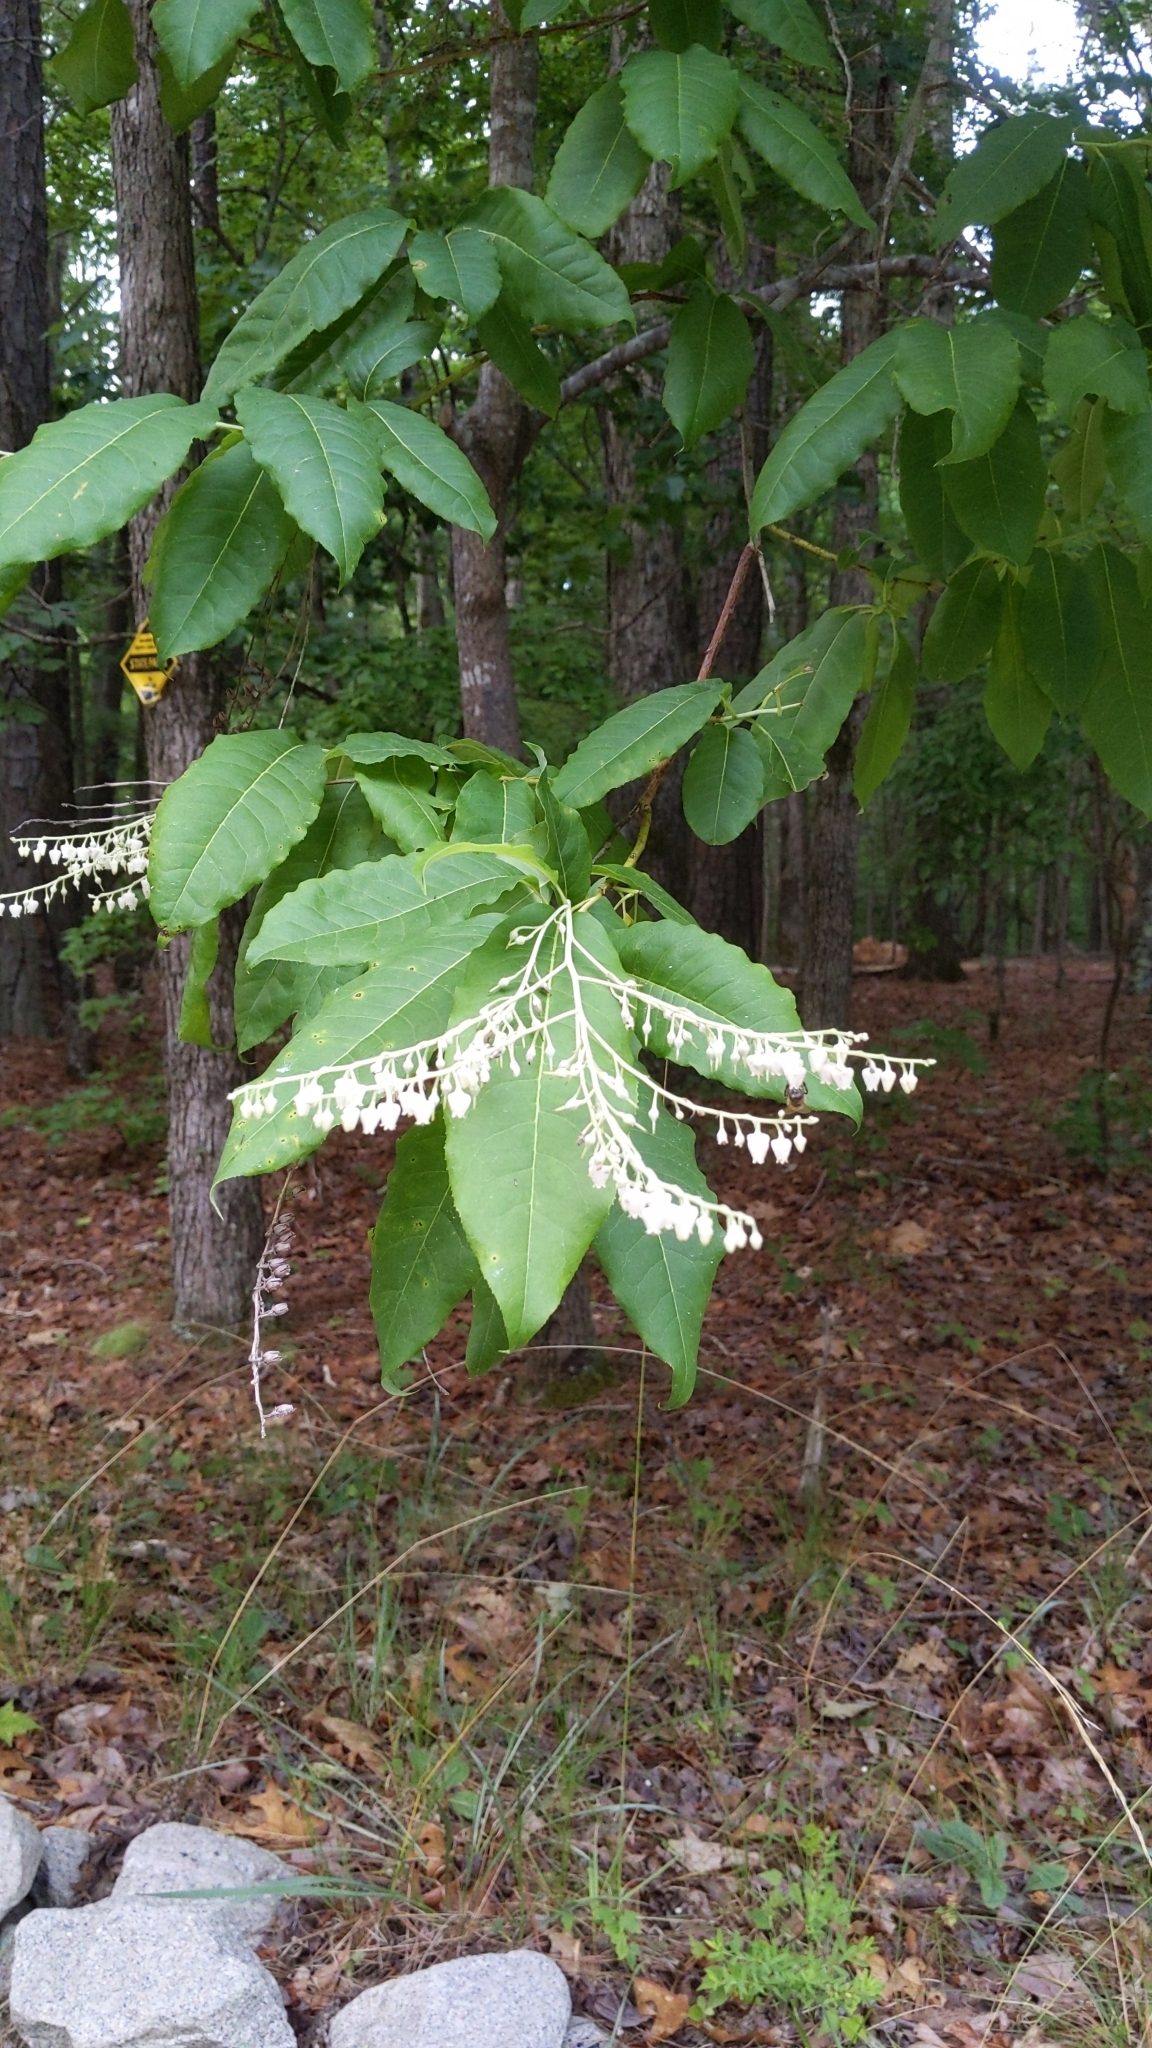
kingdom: Plantae
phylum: Tracheophyta
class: Magnoliopsida
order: Ericales
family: Ericaceae
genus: Oxydendrum
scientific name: Oxydendrum arboreum
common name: Sourwood
